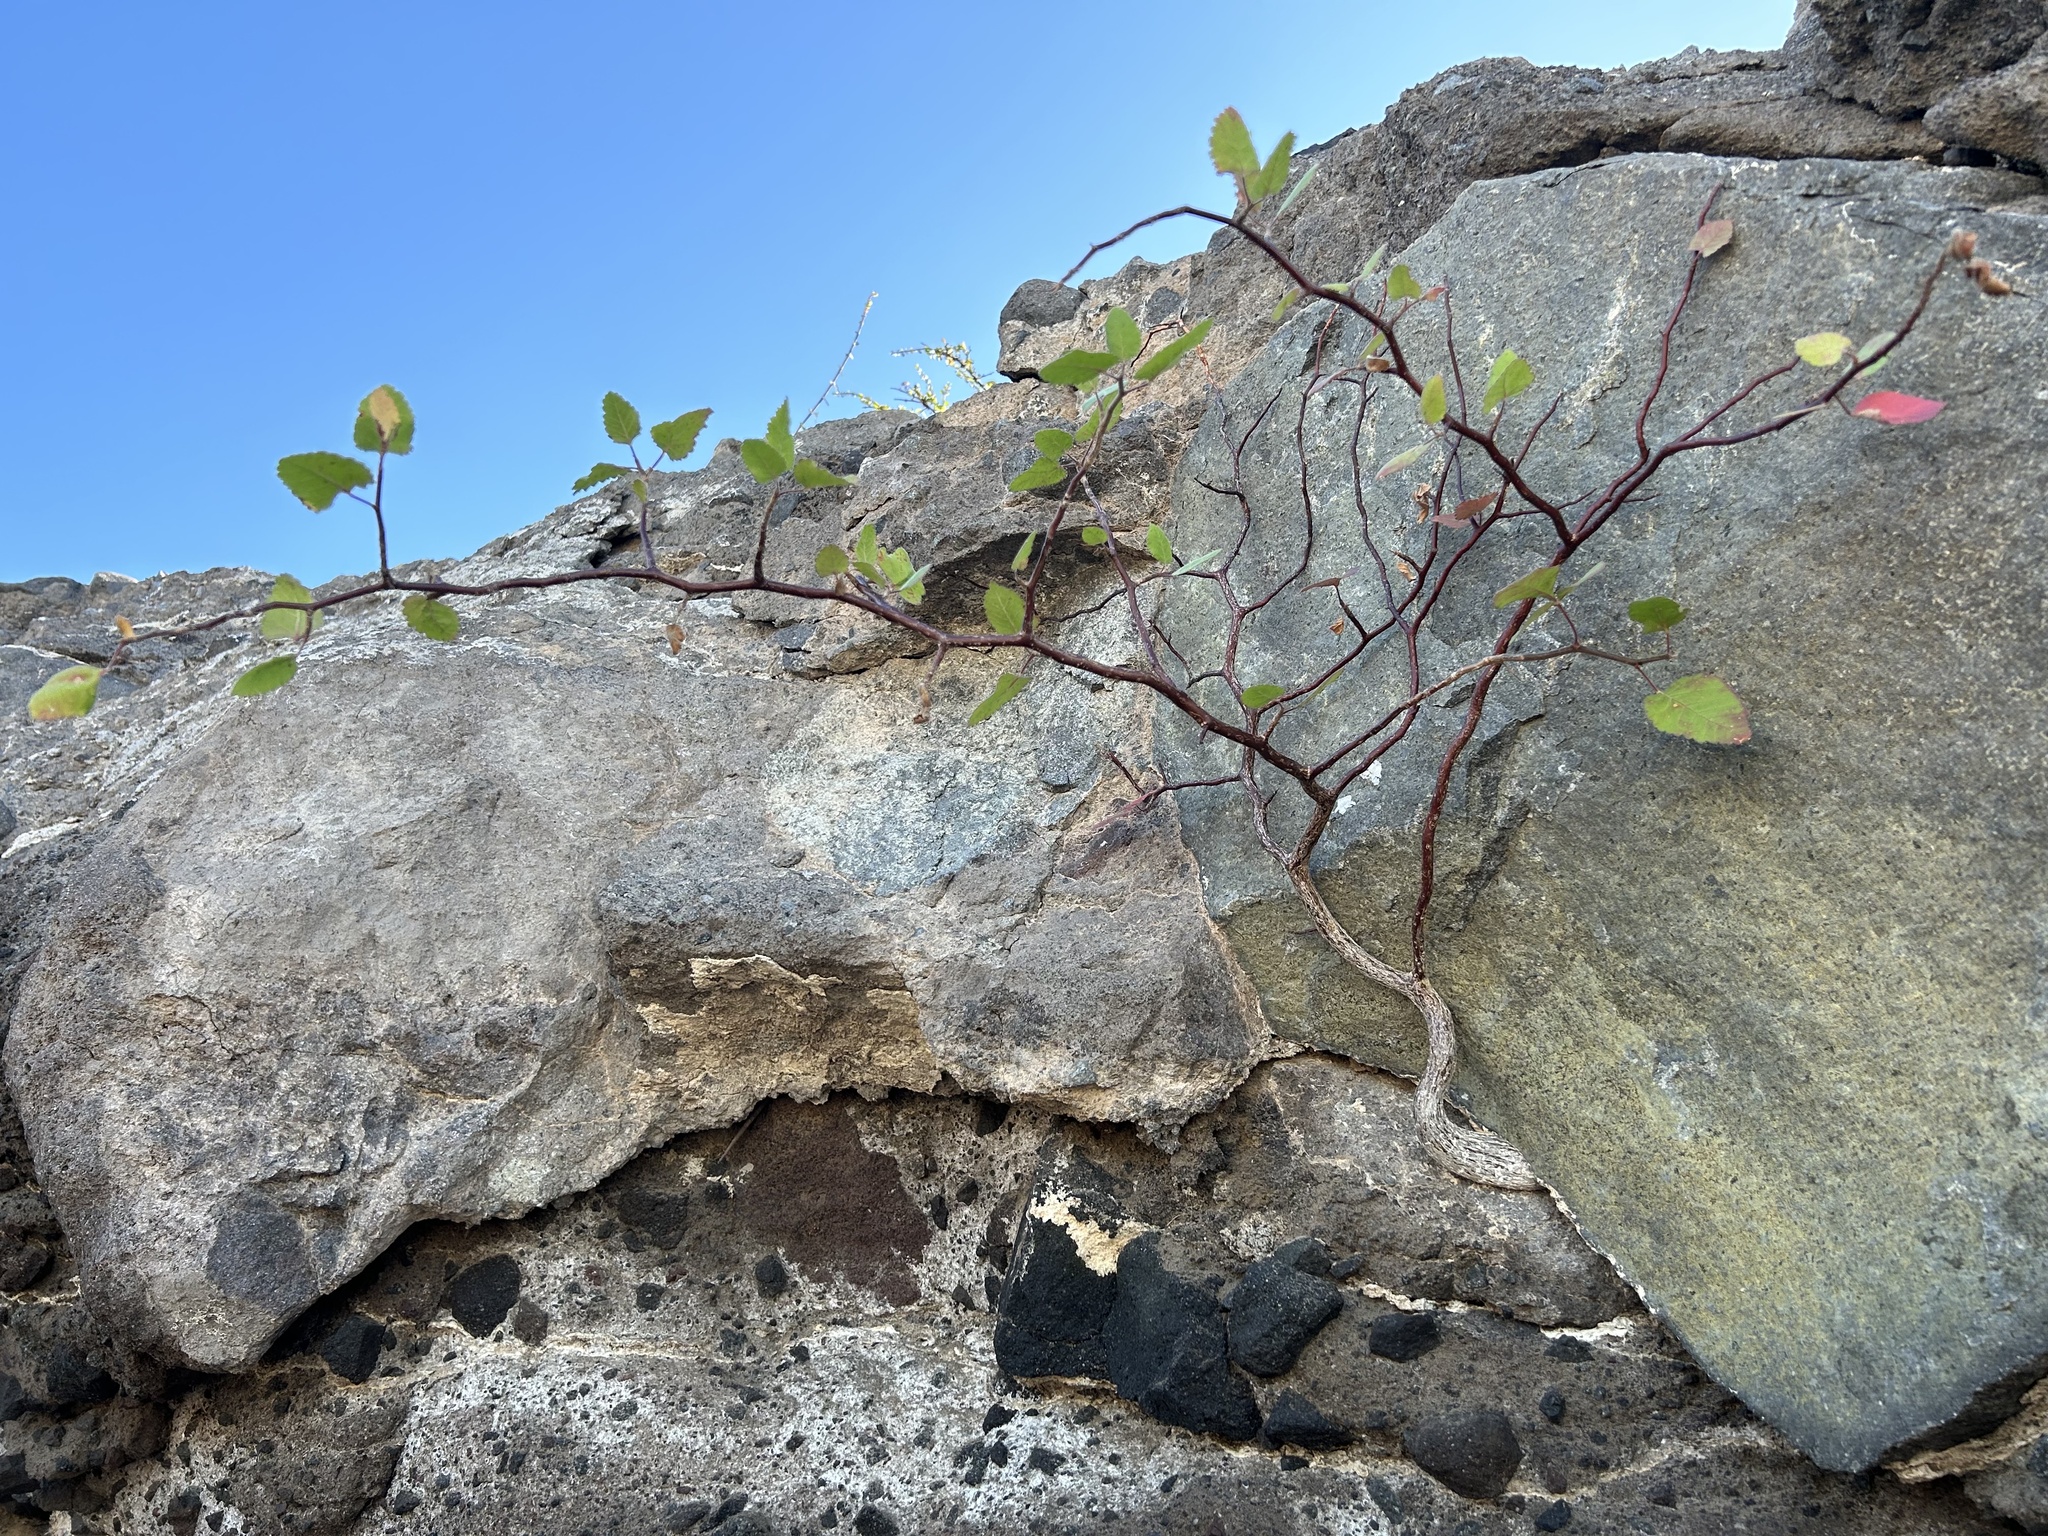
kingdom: Plantae
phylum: Tracheophyta
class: Magnoliopsida
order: Sapindales
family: Burseraceae
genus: Bursera
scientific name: Bursera epinnata
